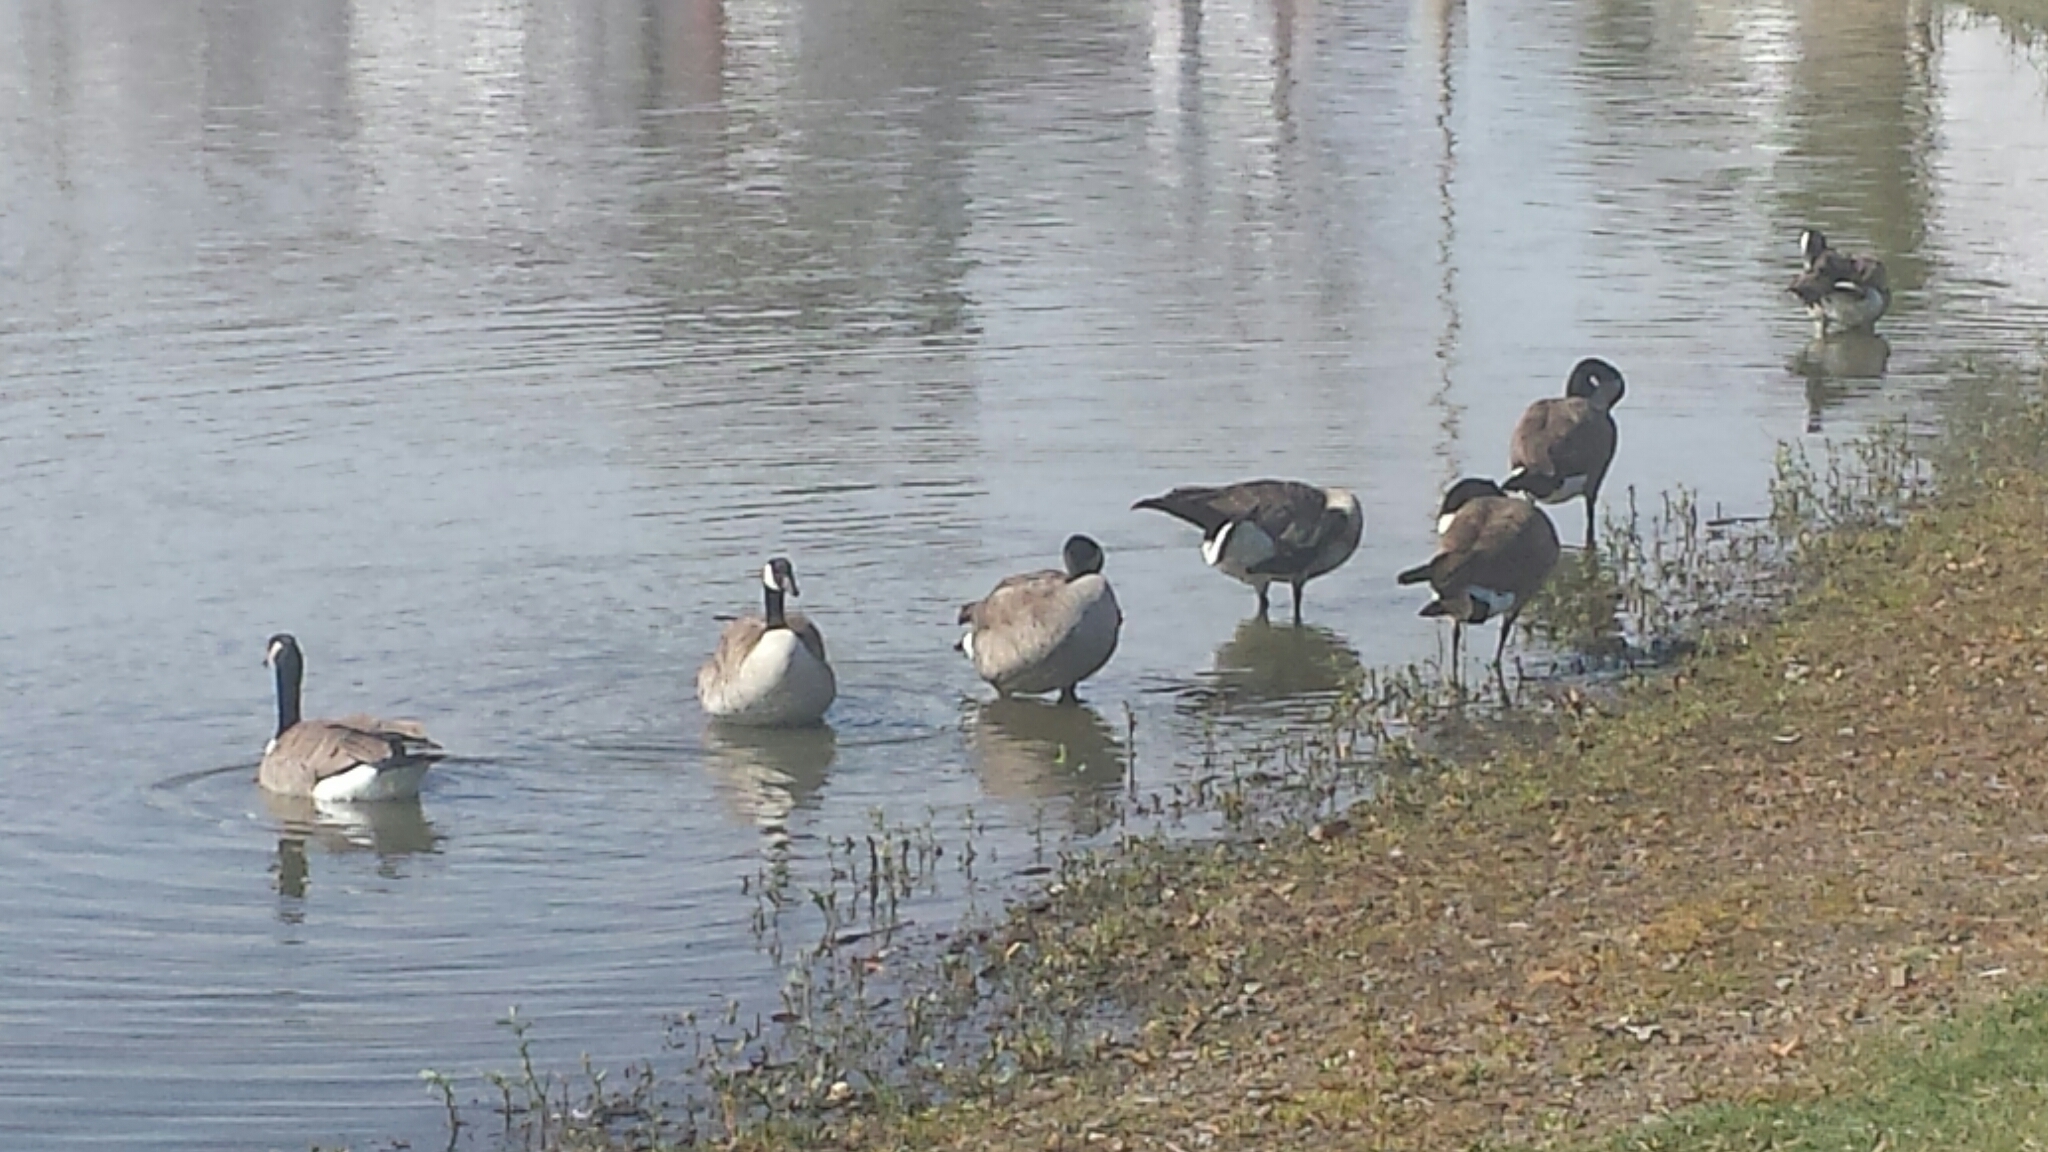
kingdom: Animalia
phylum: Chordata
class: Aves
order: Anseriformes
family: Anatidae
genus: Branta
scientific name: Branta canadensis
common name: Canada goose
